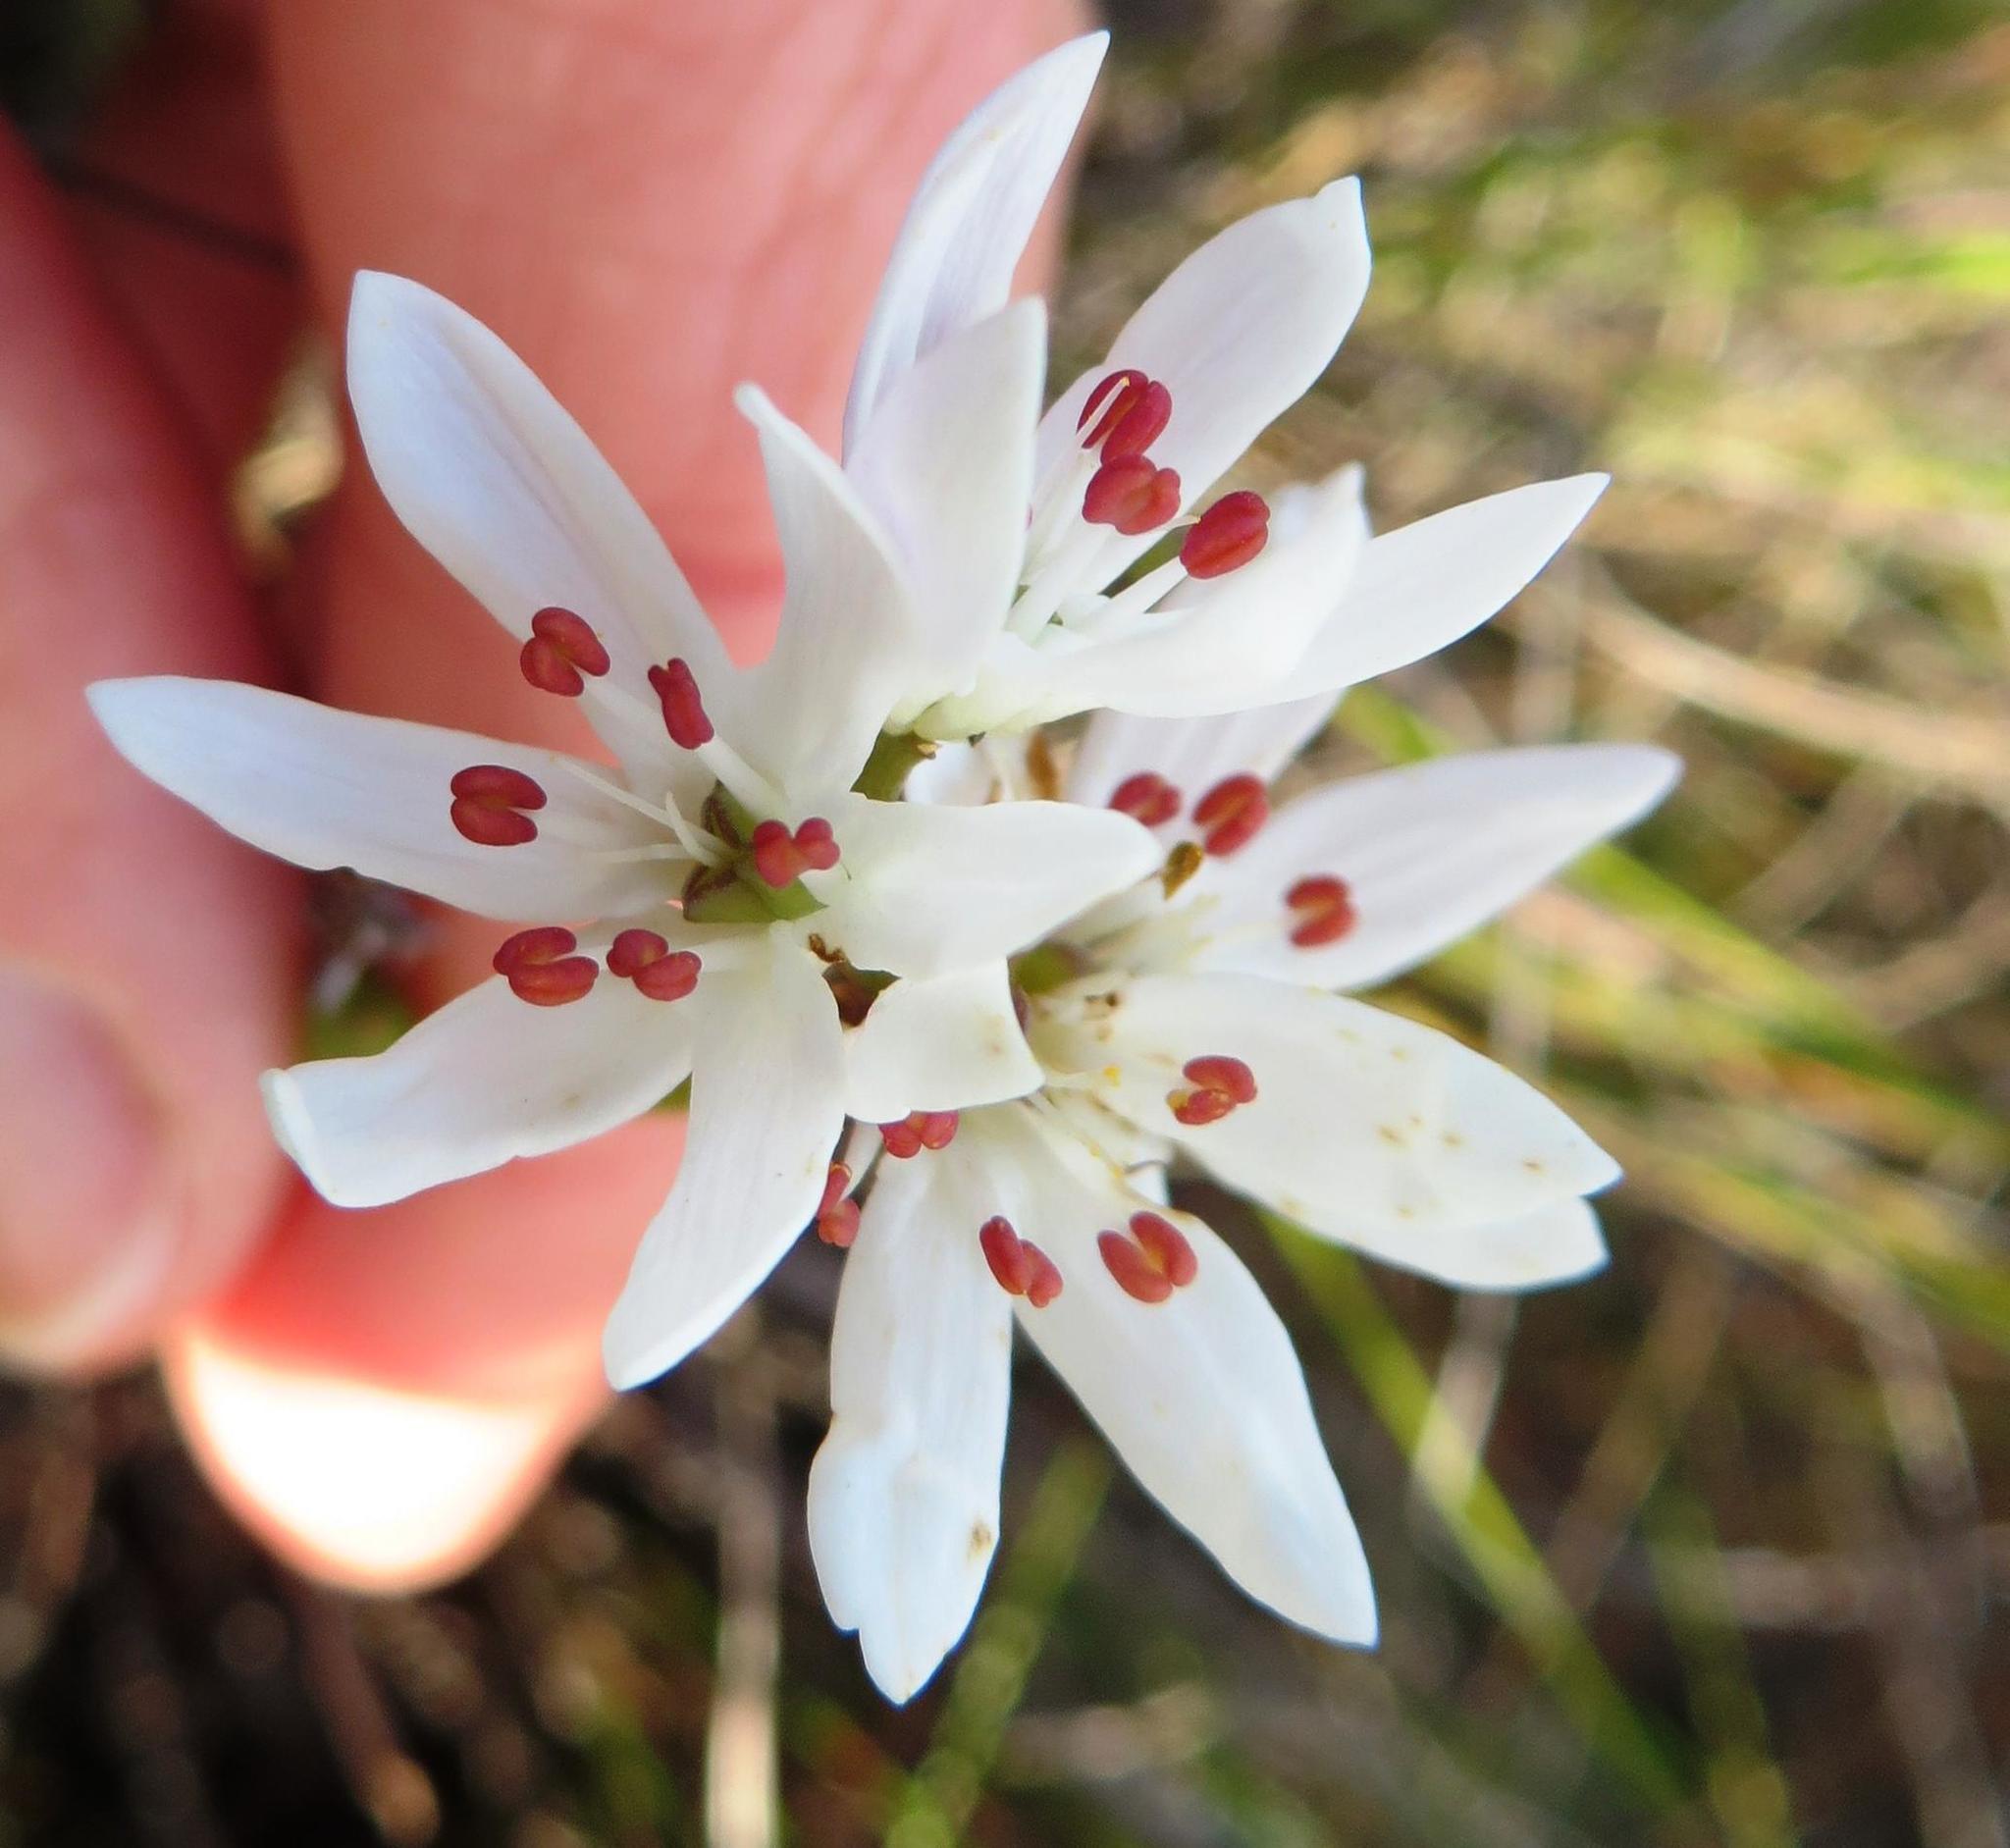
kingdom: Plantae
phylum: Tracheophyta
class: Liliopsida
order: Liliales
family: Colchicaceae
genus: Wurmbea
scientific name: Wurmbea punctata
